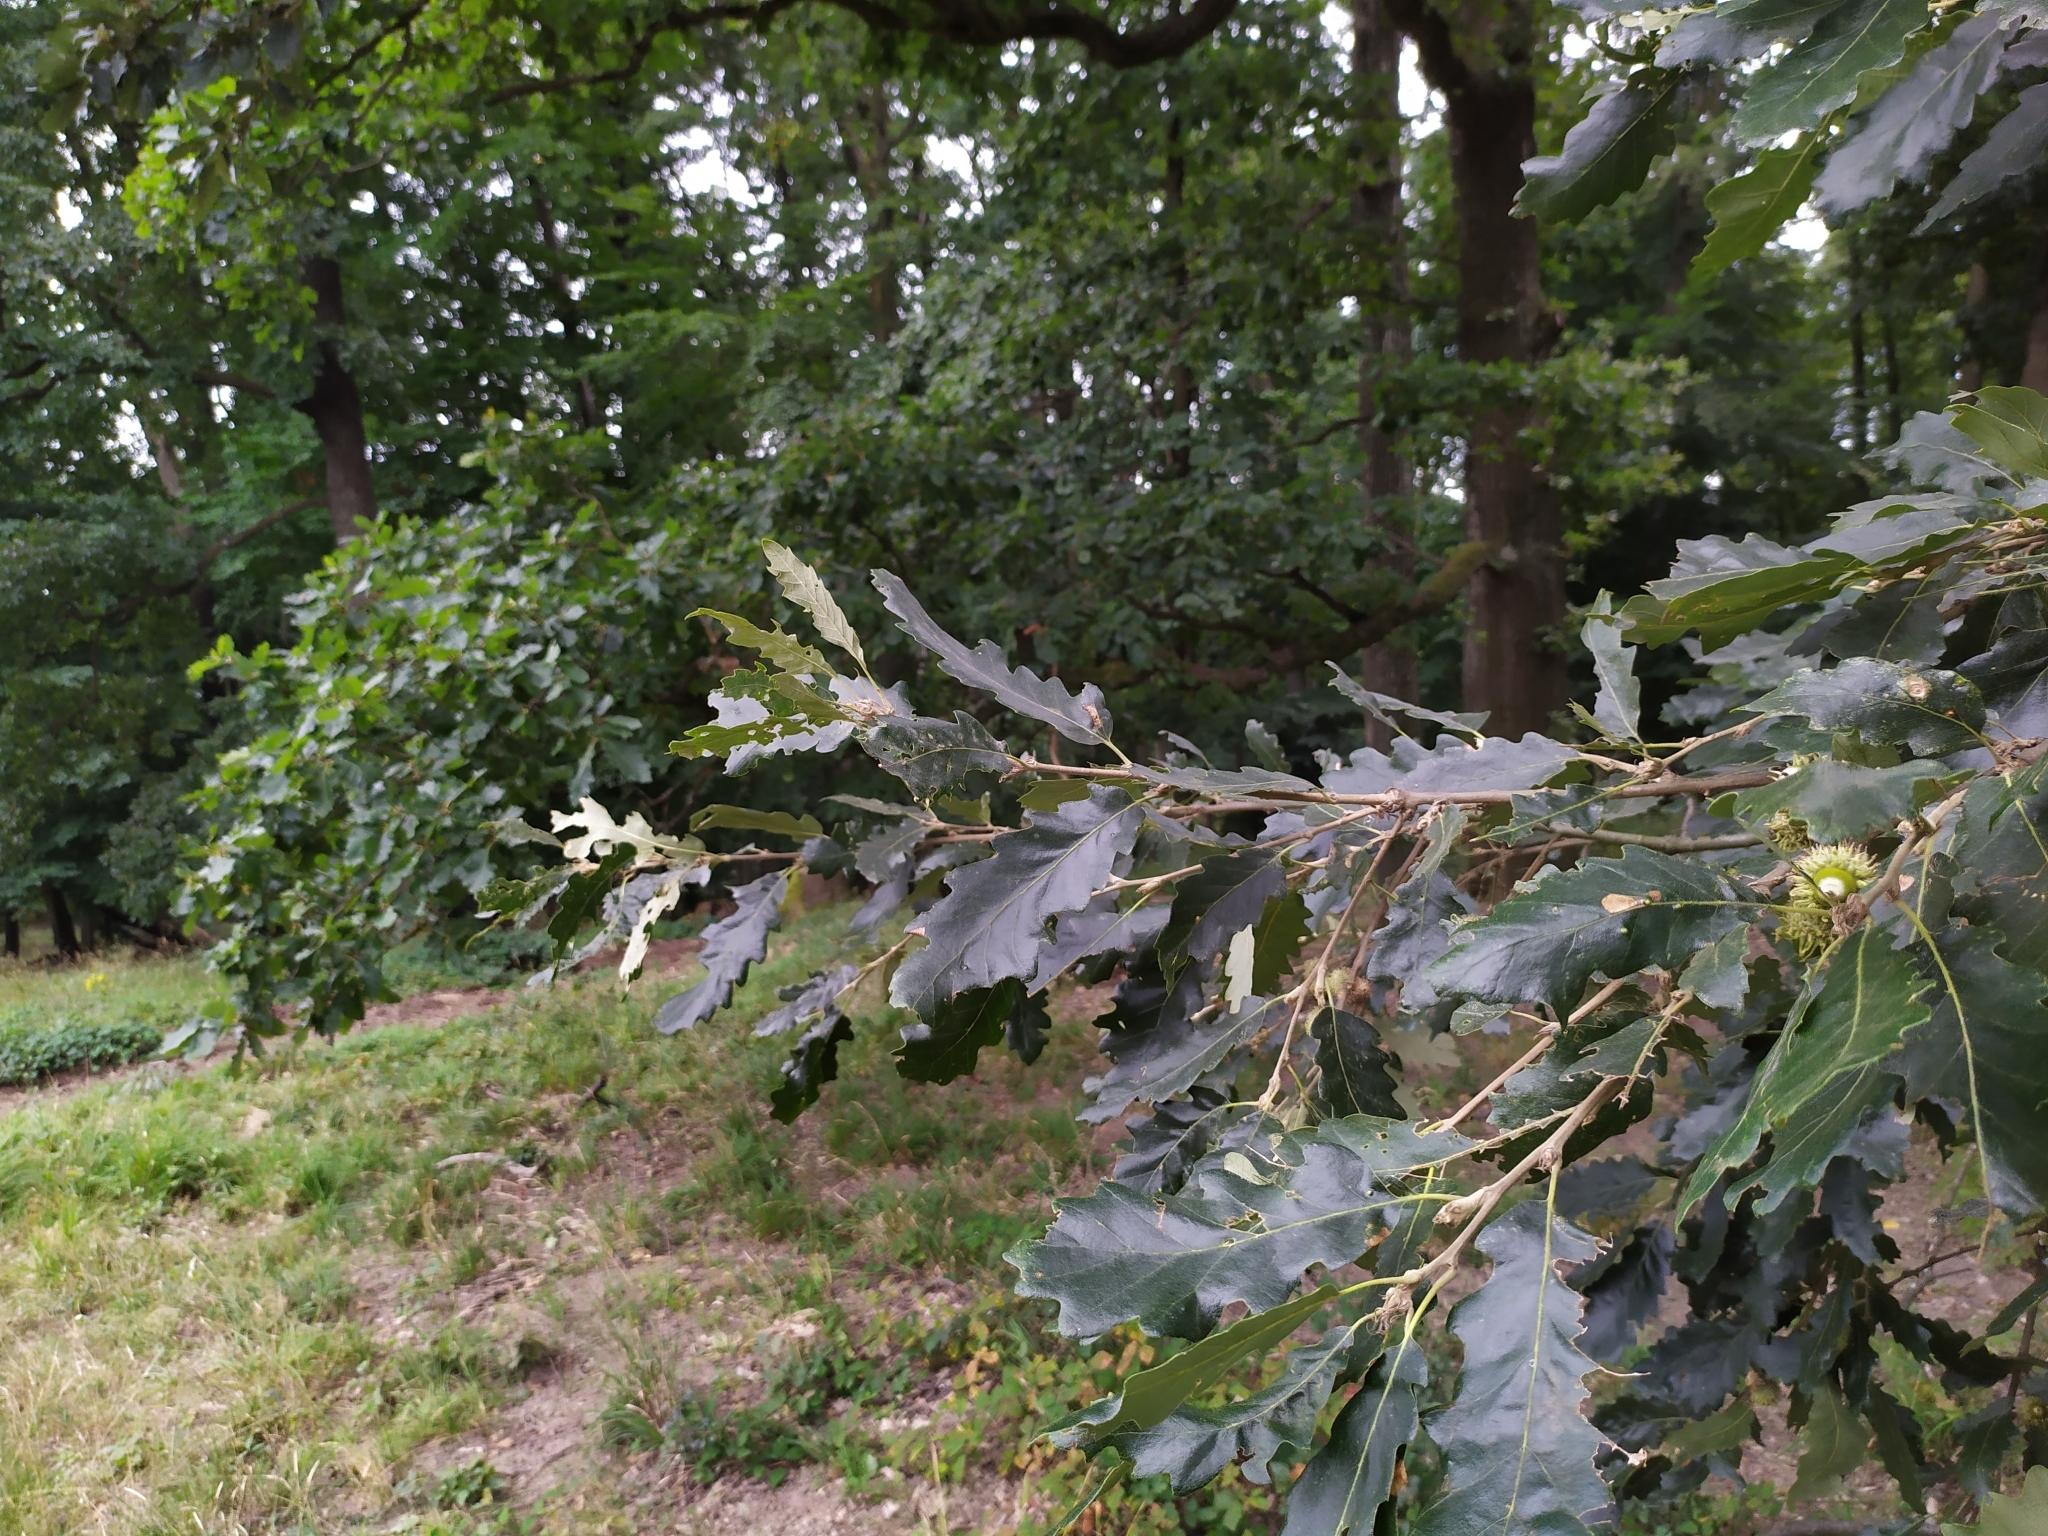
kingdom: Plantae
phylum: Tracheophyta
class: Magnoliopsida
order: Fagales
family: Fagaceae
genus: Quercus
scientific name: Quercus cerris
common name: Turkey oak
